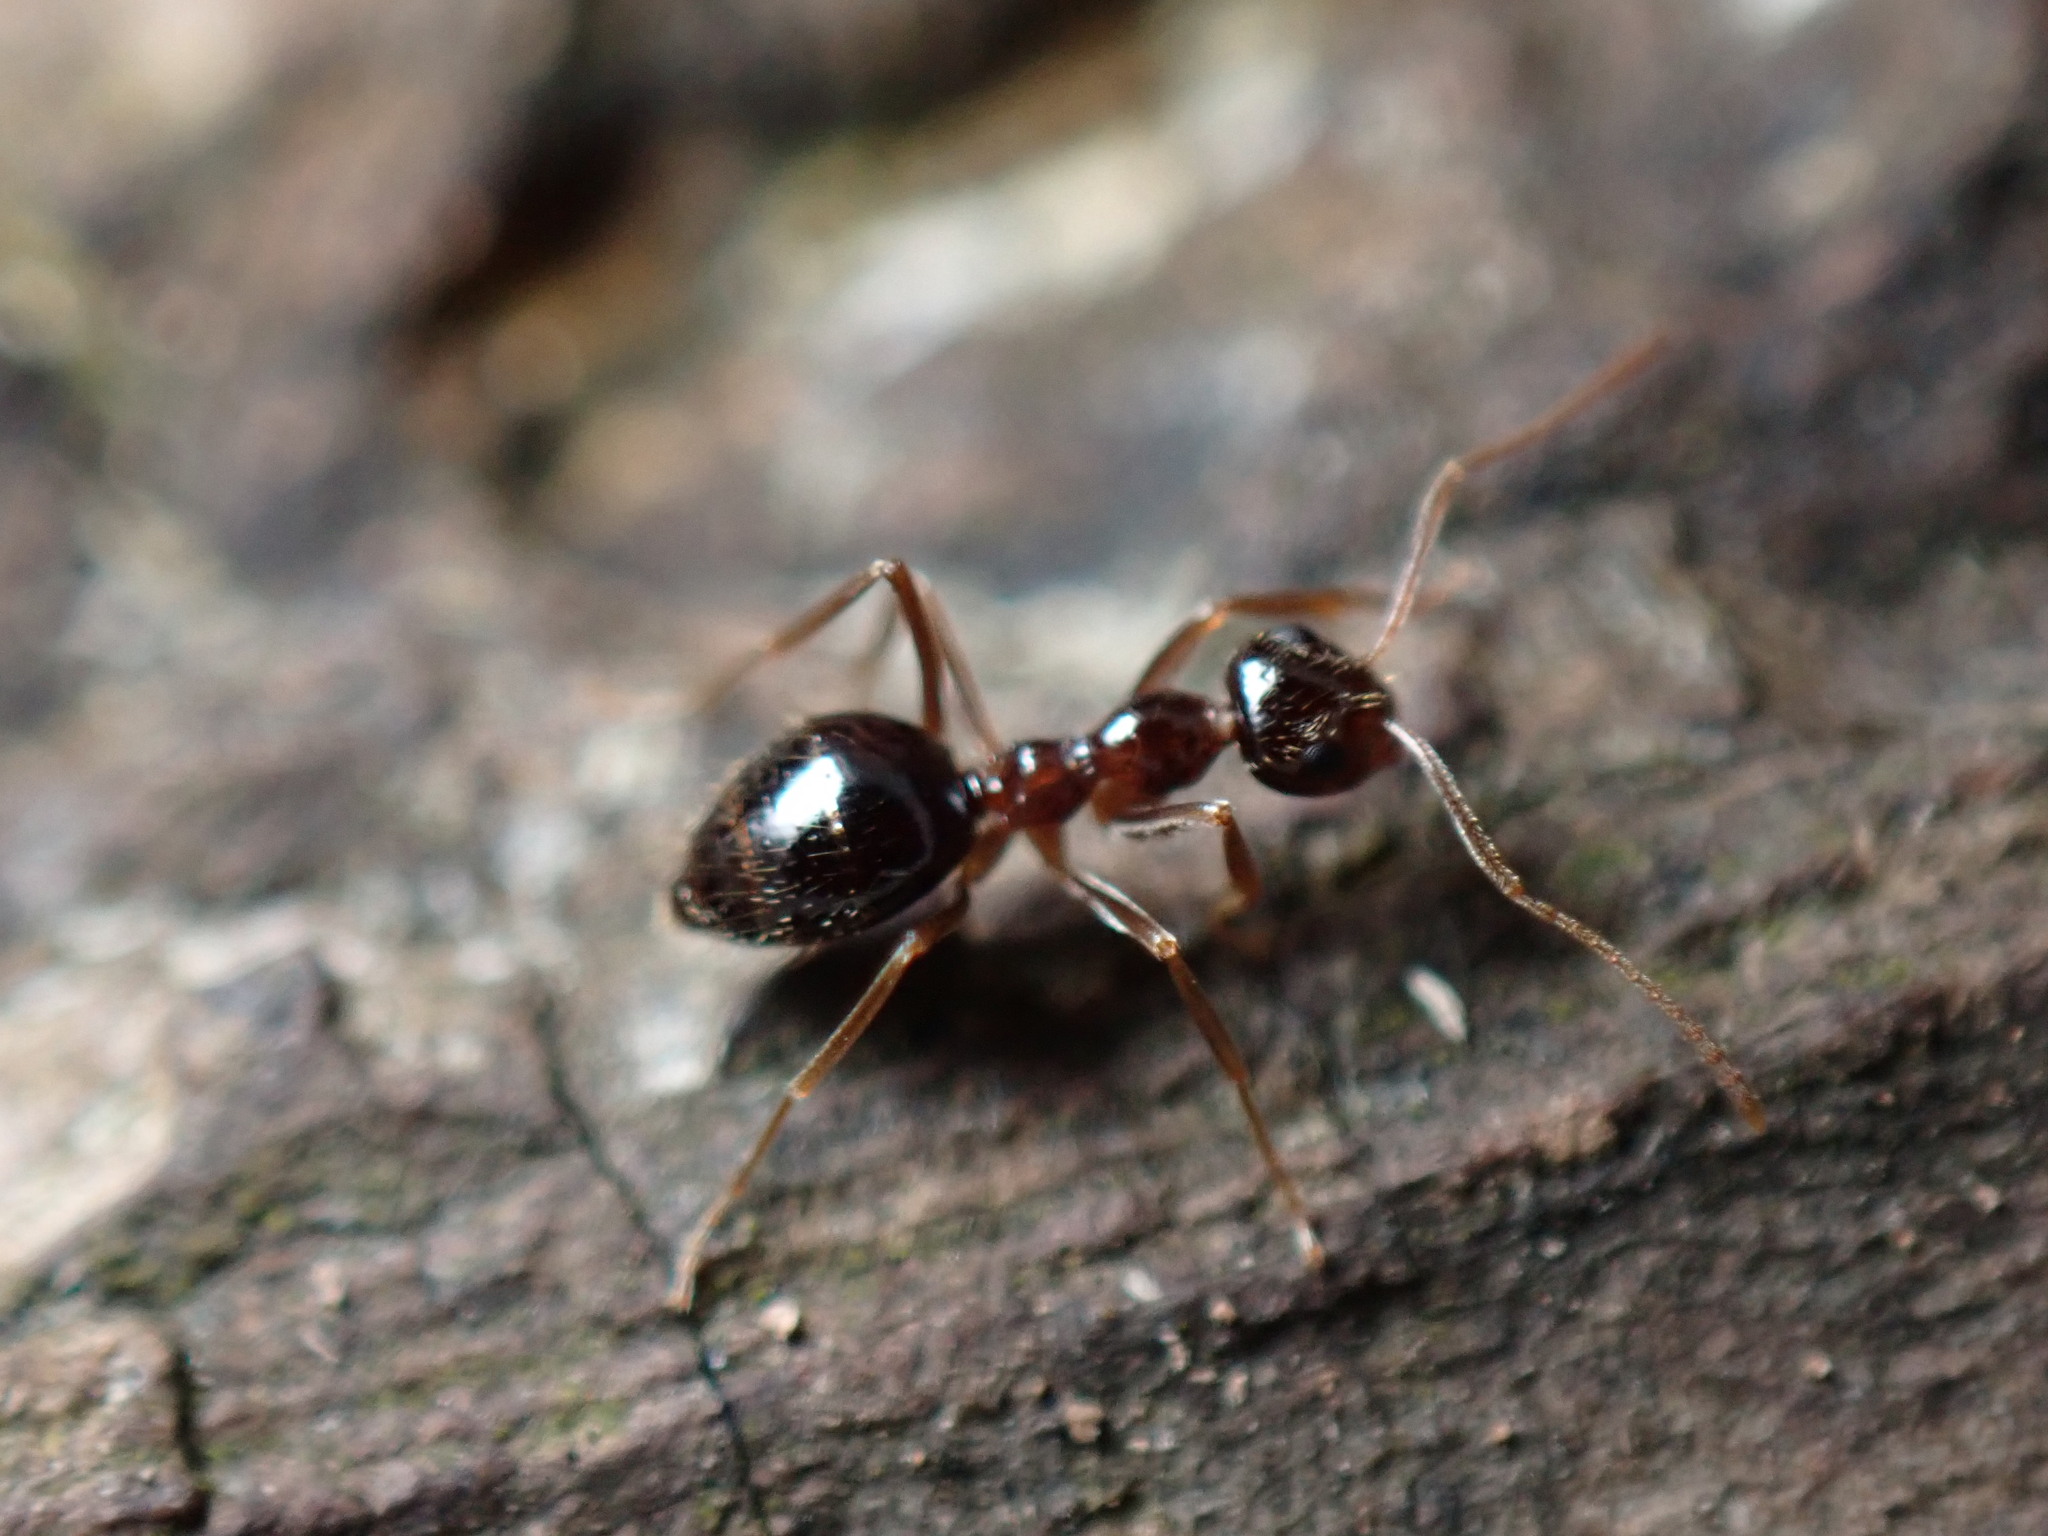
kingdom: Animalia
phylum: Arthropoda
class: Insecta
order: Hymenoptera
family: Formicidae
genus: Prenolepis
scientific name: Prenolepis imparis
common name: Small honey ant
